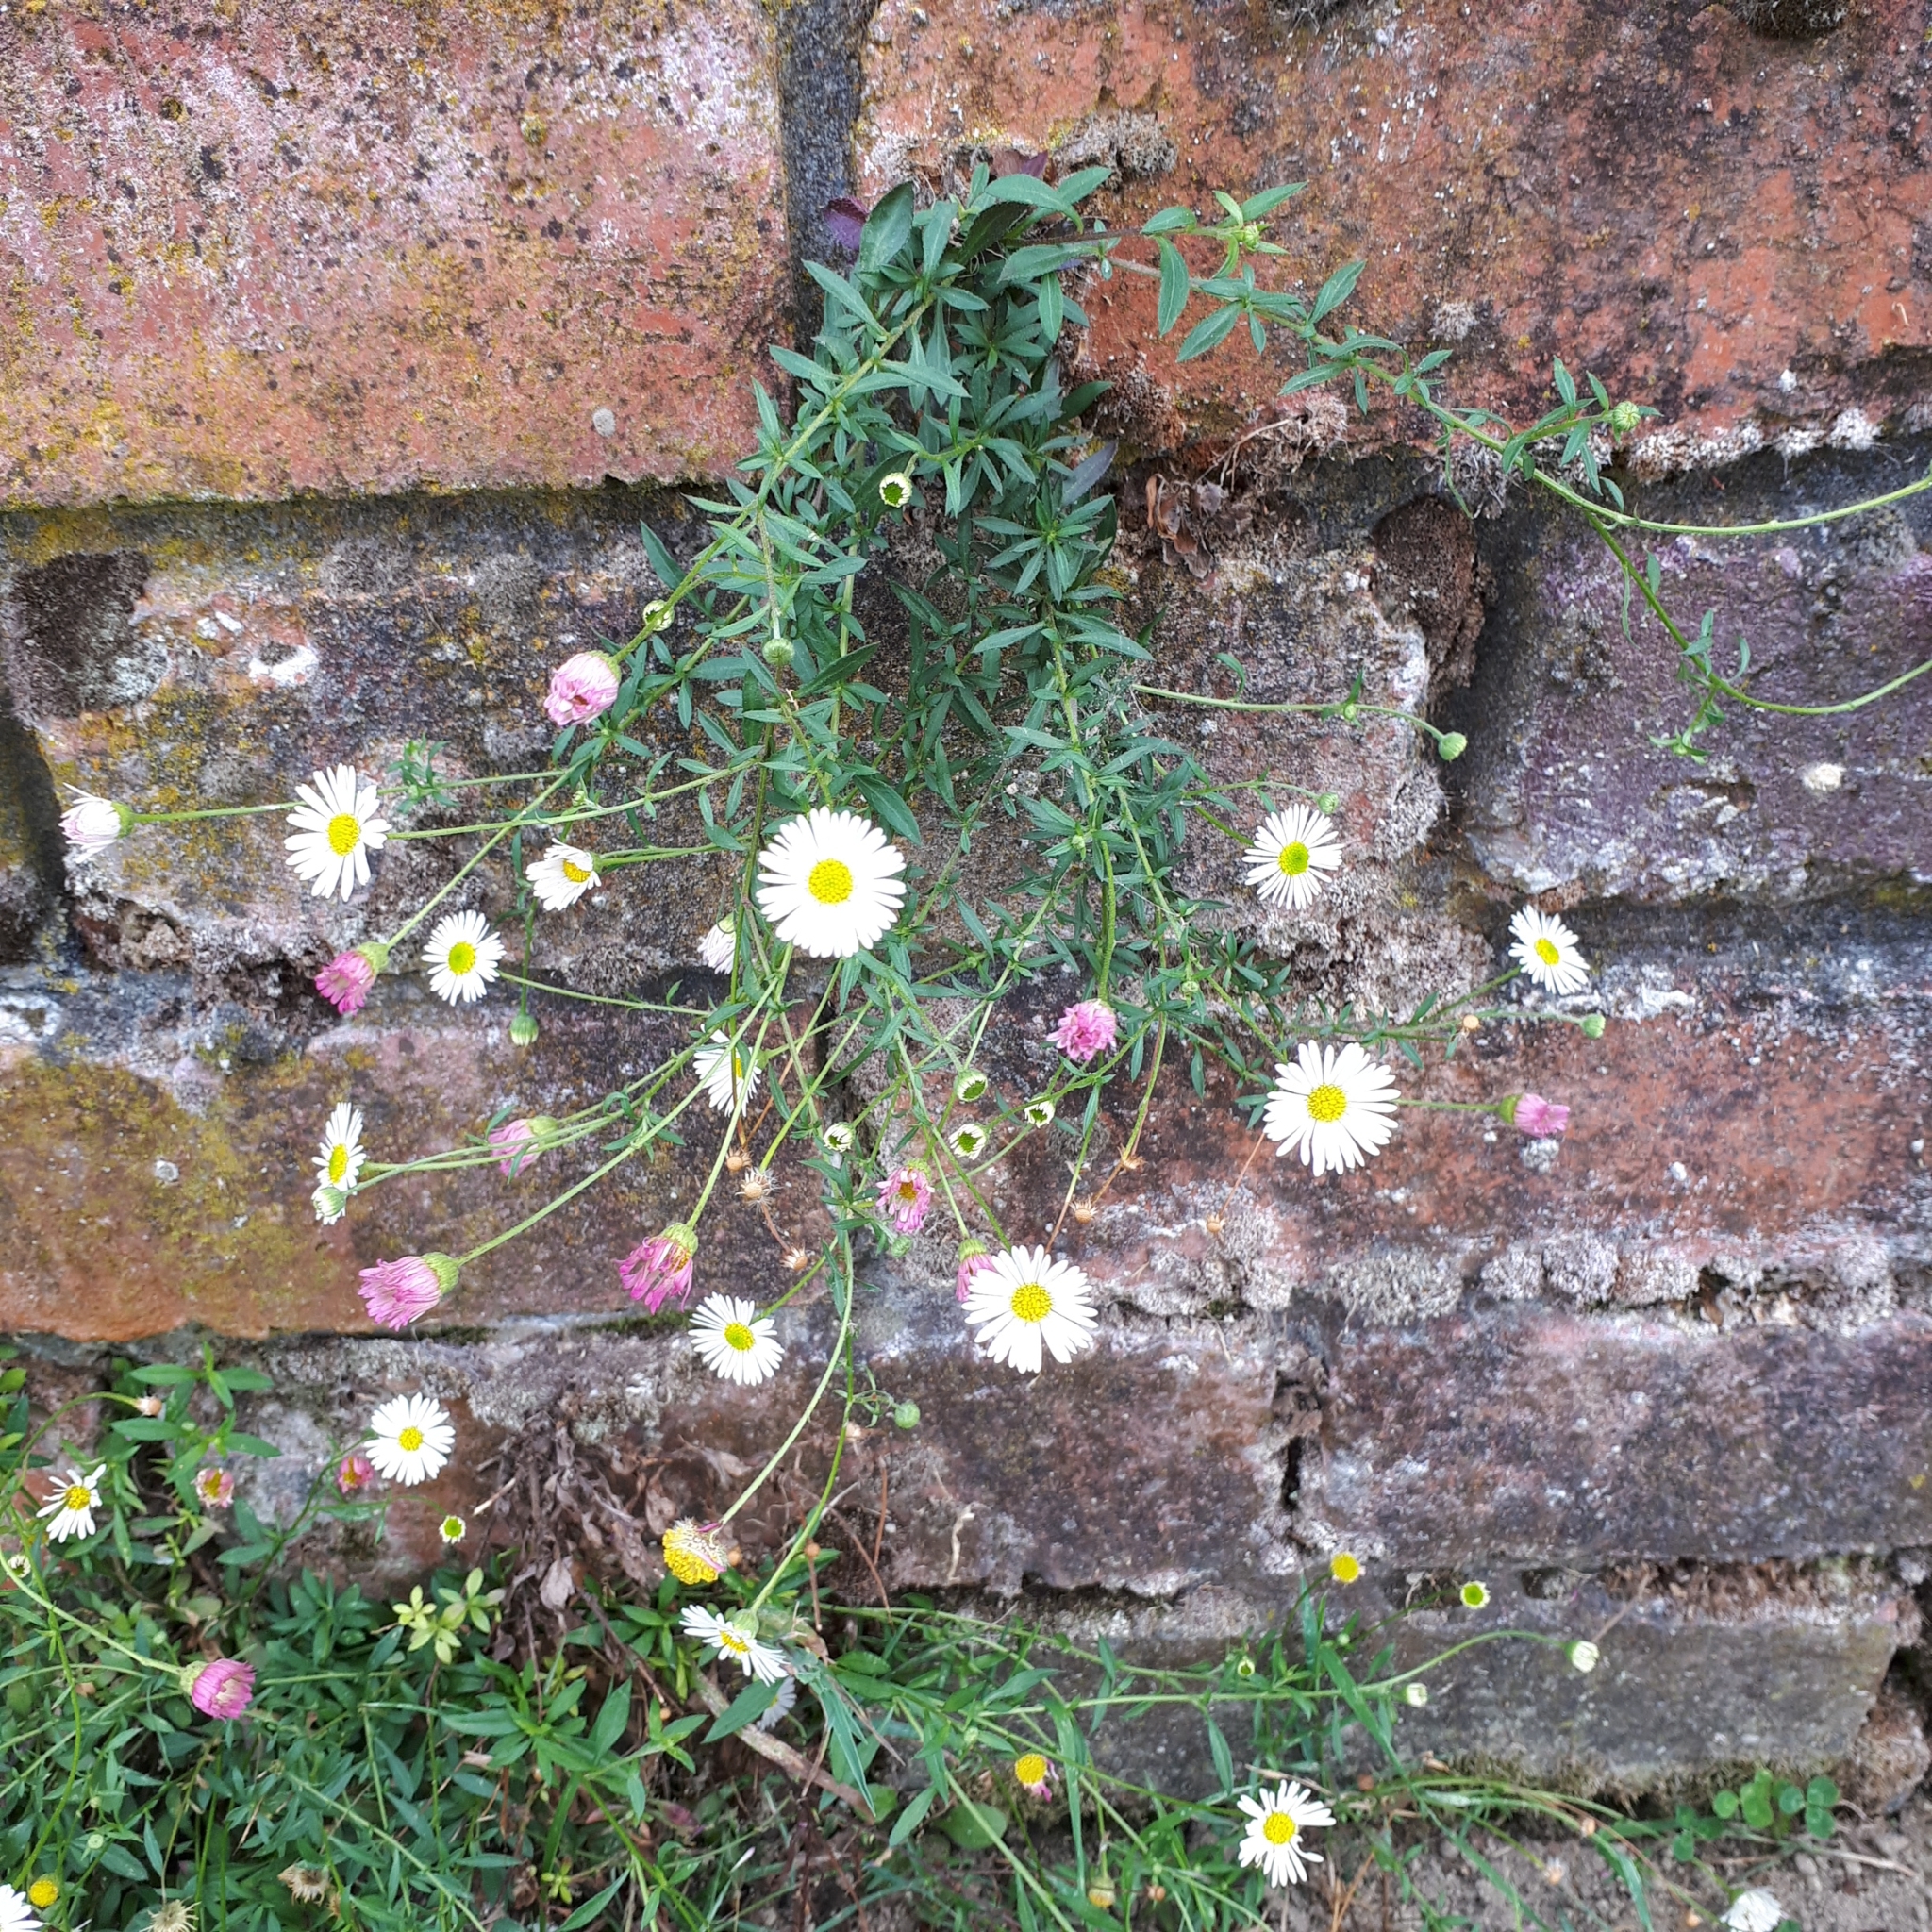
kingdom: Plantae
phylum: Tracheophyta
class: Magnoliopsida
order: Asterales
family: Asteraceae
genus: Erigeron
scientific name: Erigeron karvinskianus
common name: Mexican fleabane
